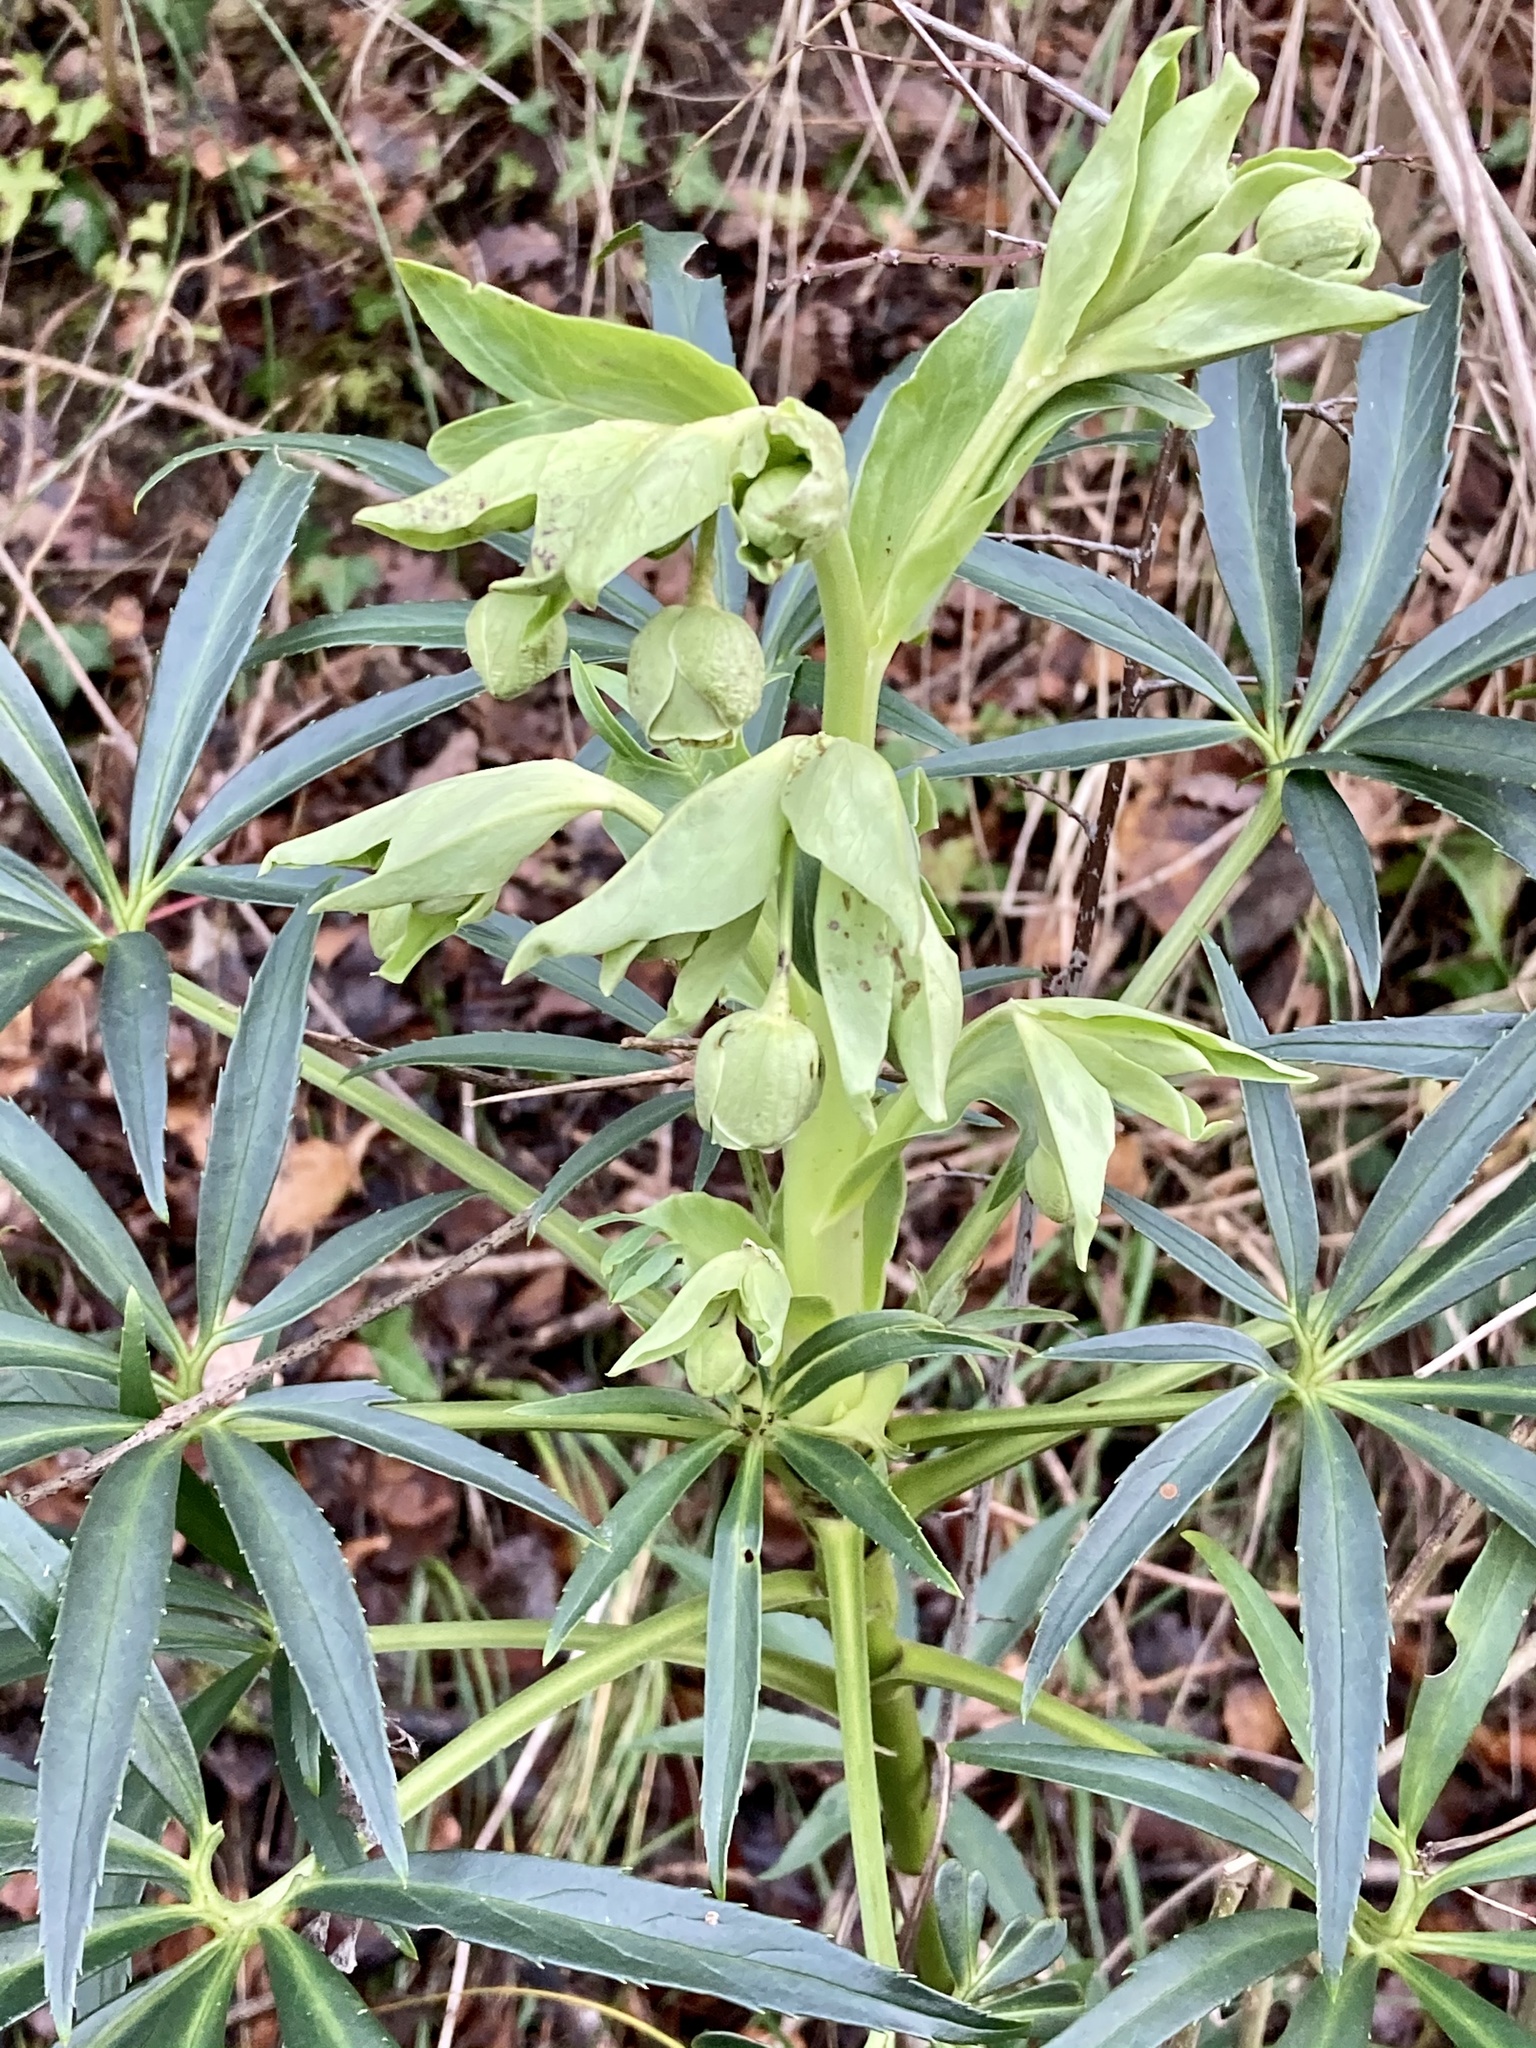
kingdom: Plantae
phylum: Tracheophyta
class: Magnoliopsida
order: Ranunculales
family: Ranunculaceae
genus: Helleborus
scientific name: Helleborus foetidus
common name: Stinking hellebore
